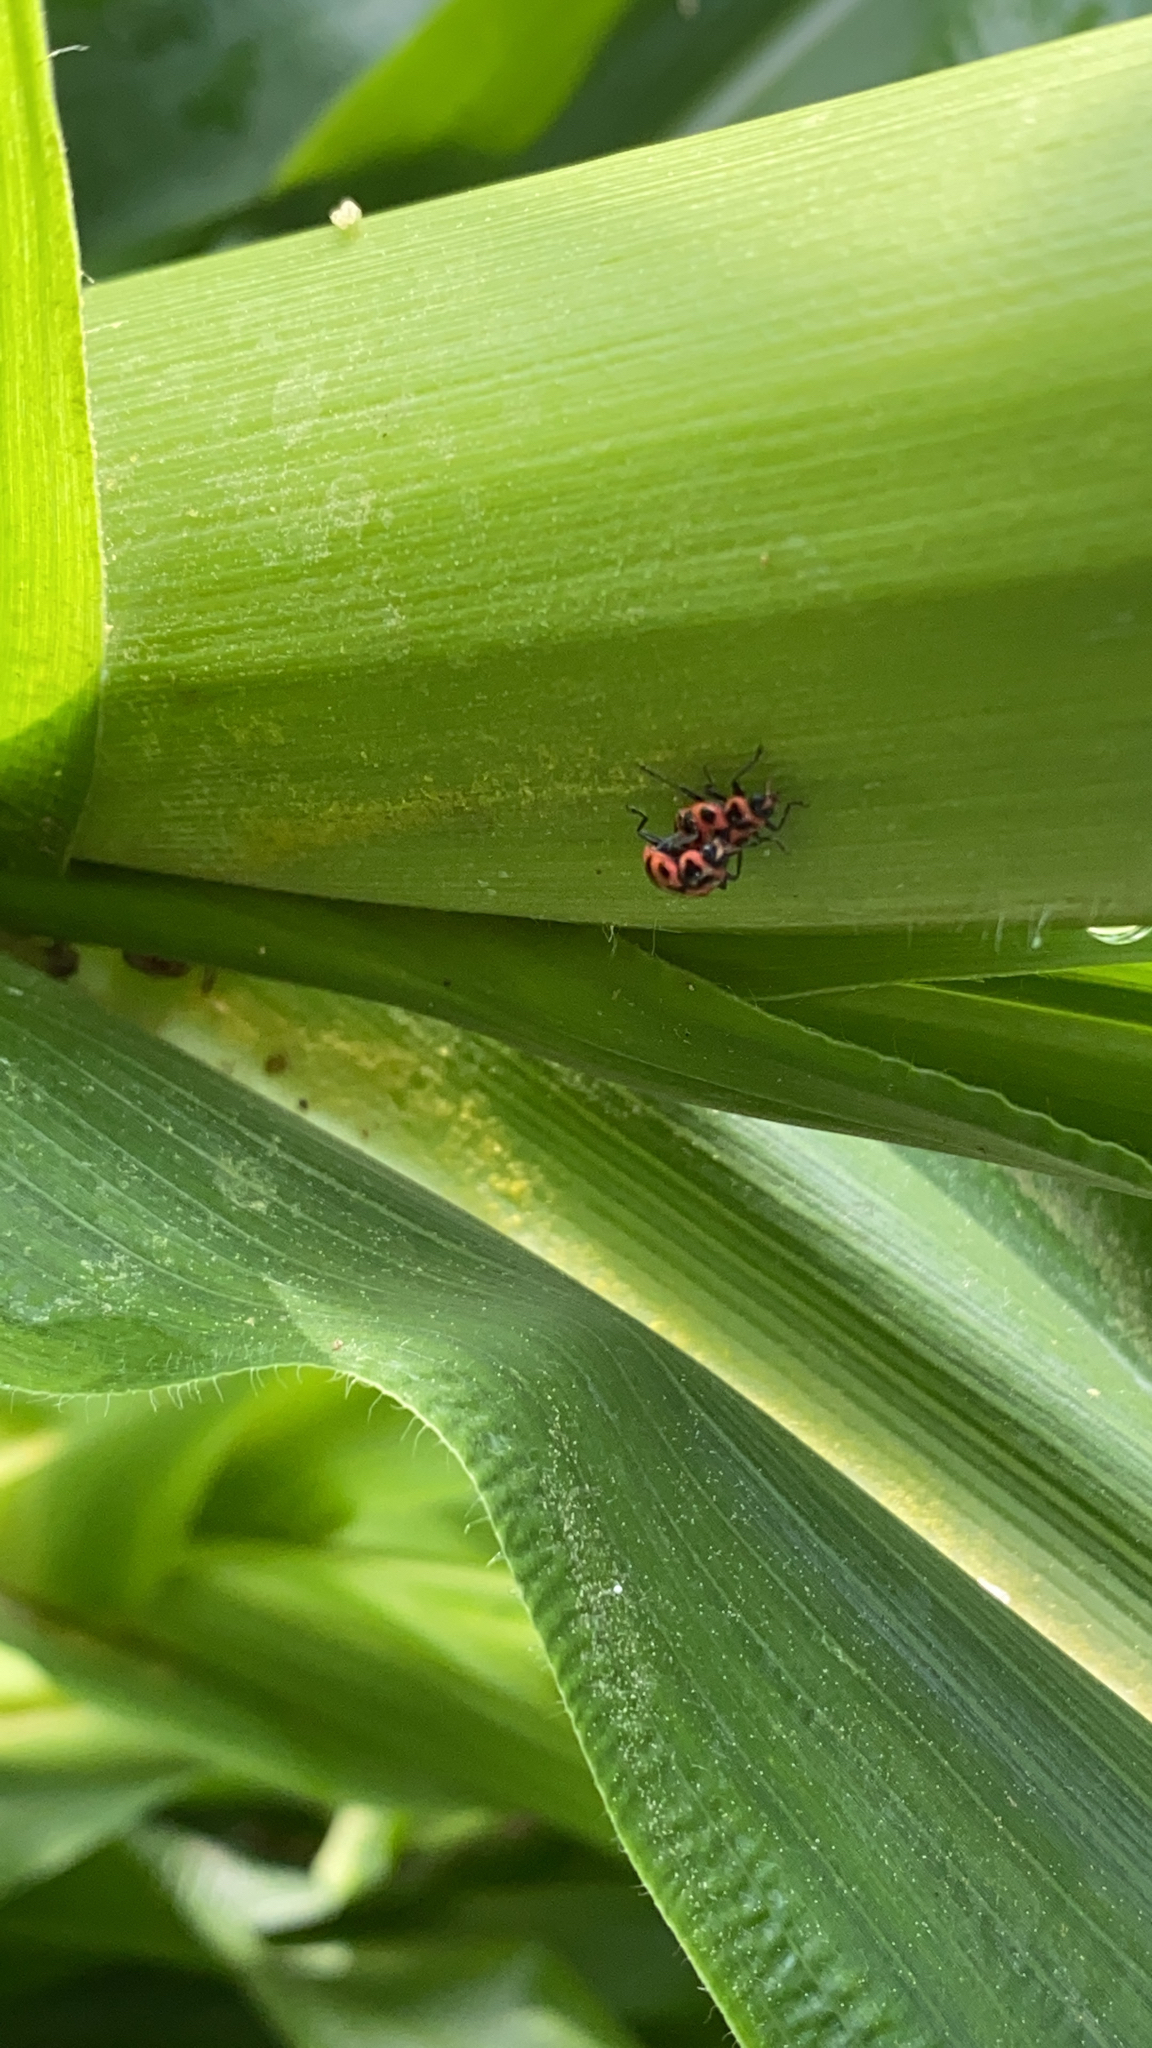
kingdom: Animalia
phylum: Arthropoda
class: Insecta
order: Coleoptera
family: Coccinellidae
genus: Coleomegilla
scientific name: Coleomegilla maculata
